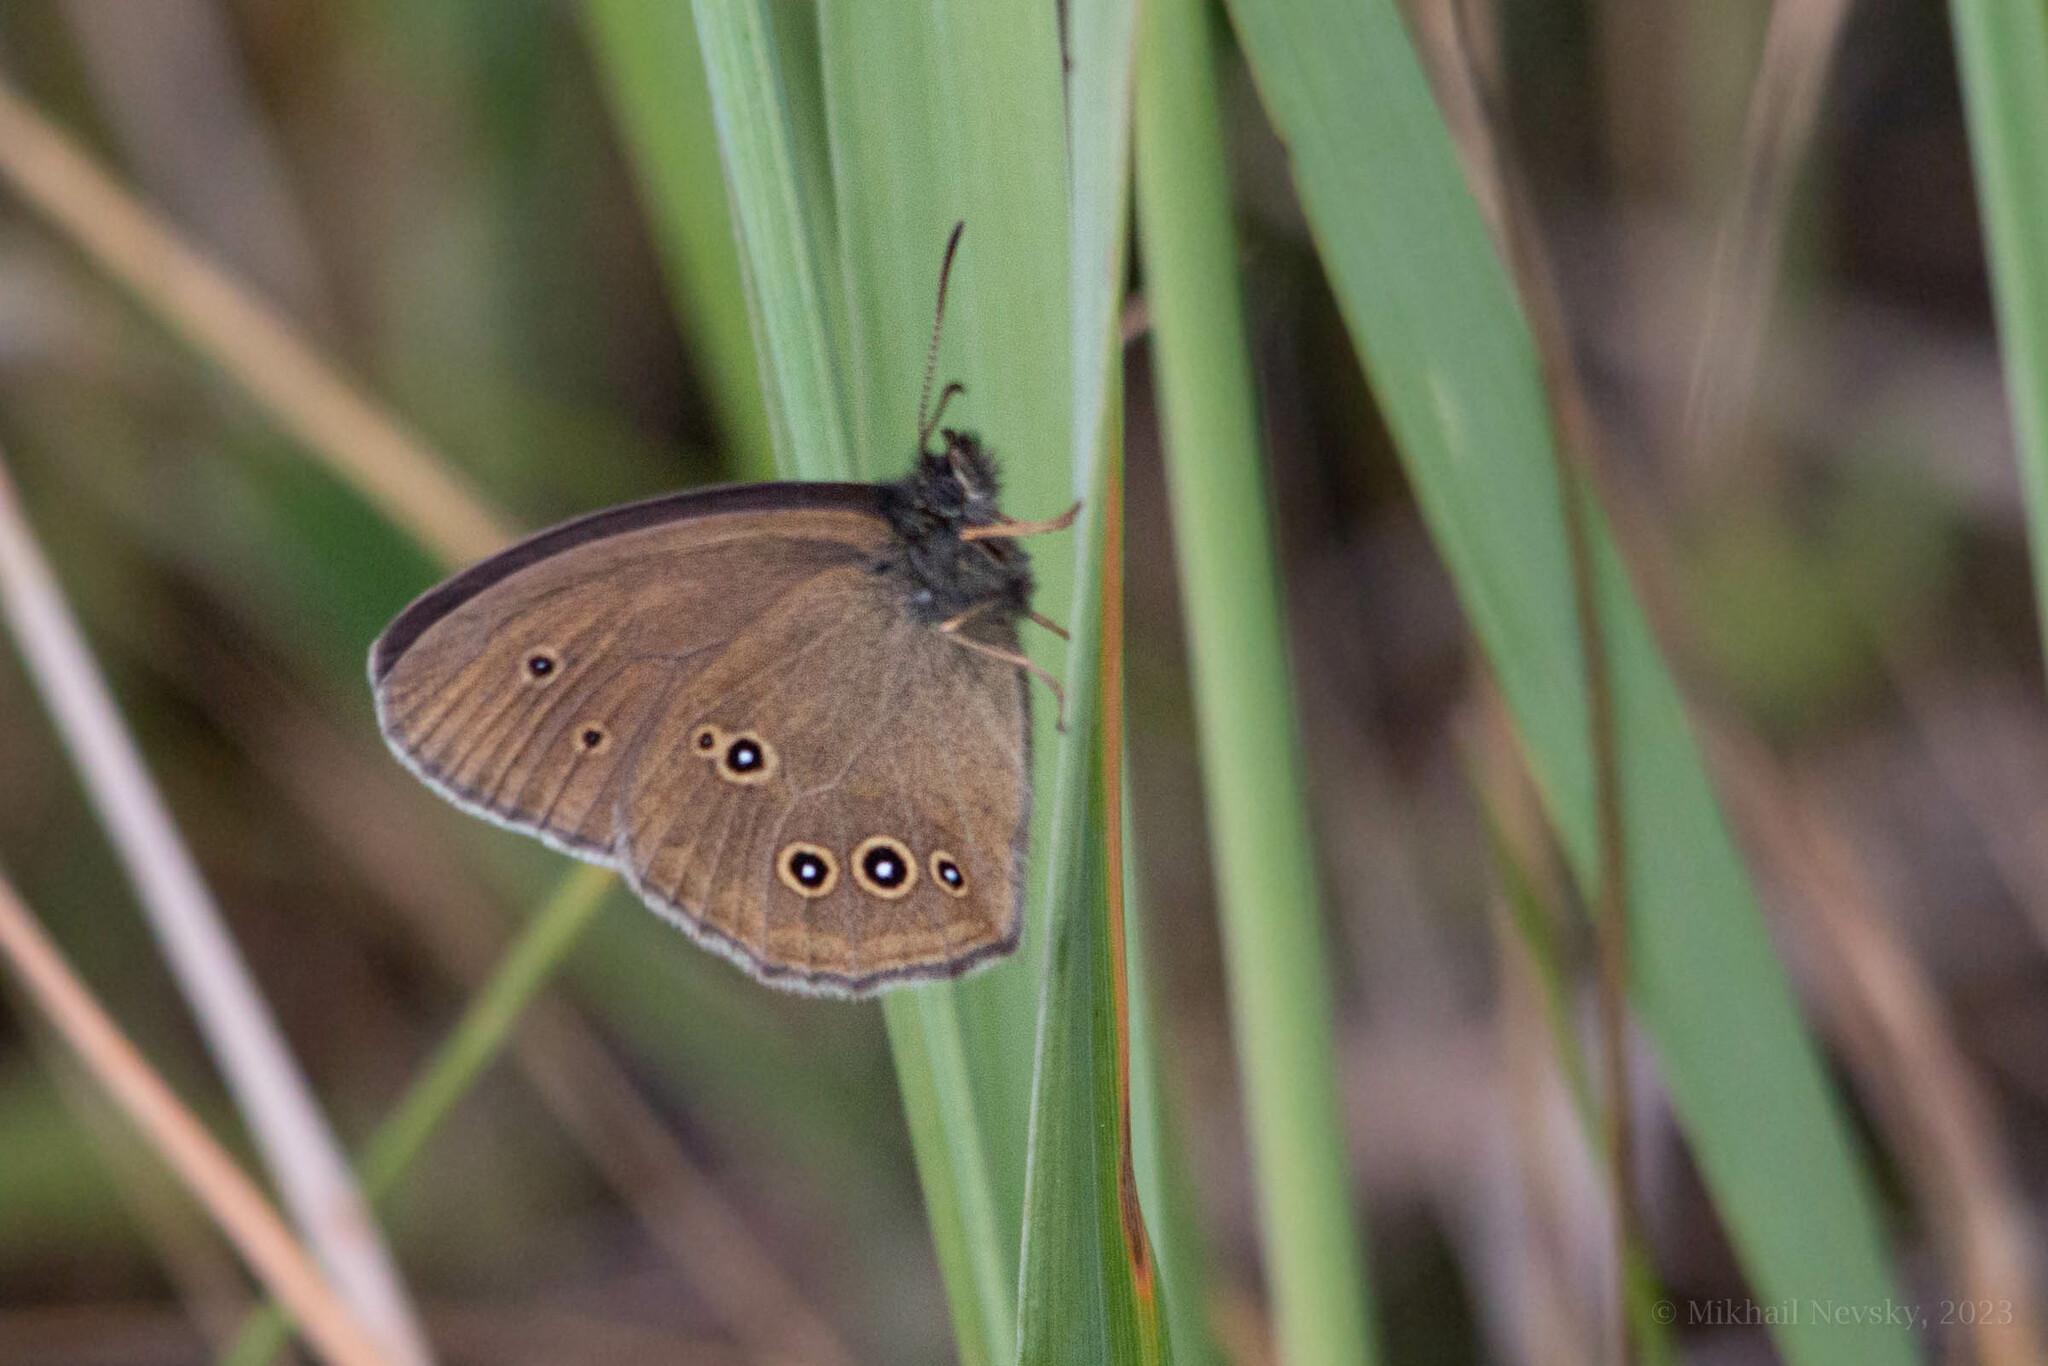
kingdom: Animalia
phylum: Arthropoda
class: Insecta
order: Lepidoptera
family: Nymphalidae
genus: Aphantopus
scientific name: Aphantopus hyperantus
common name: Ringlet
